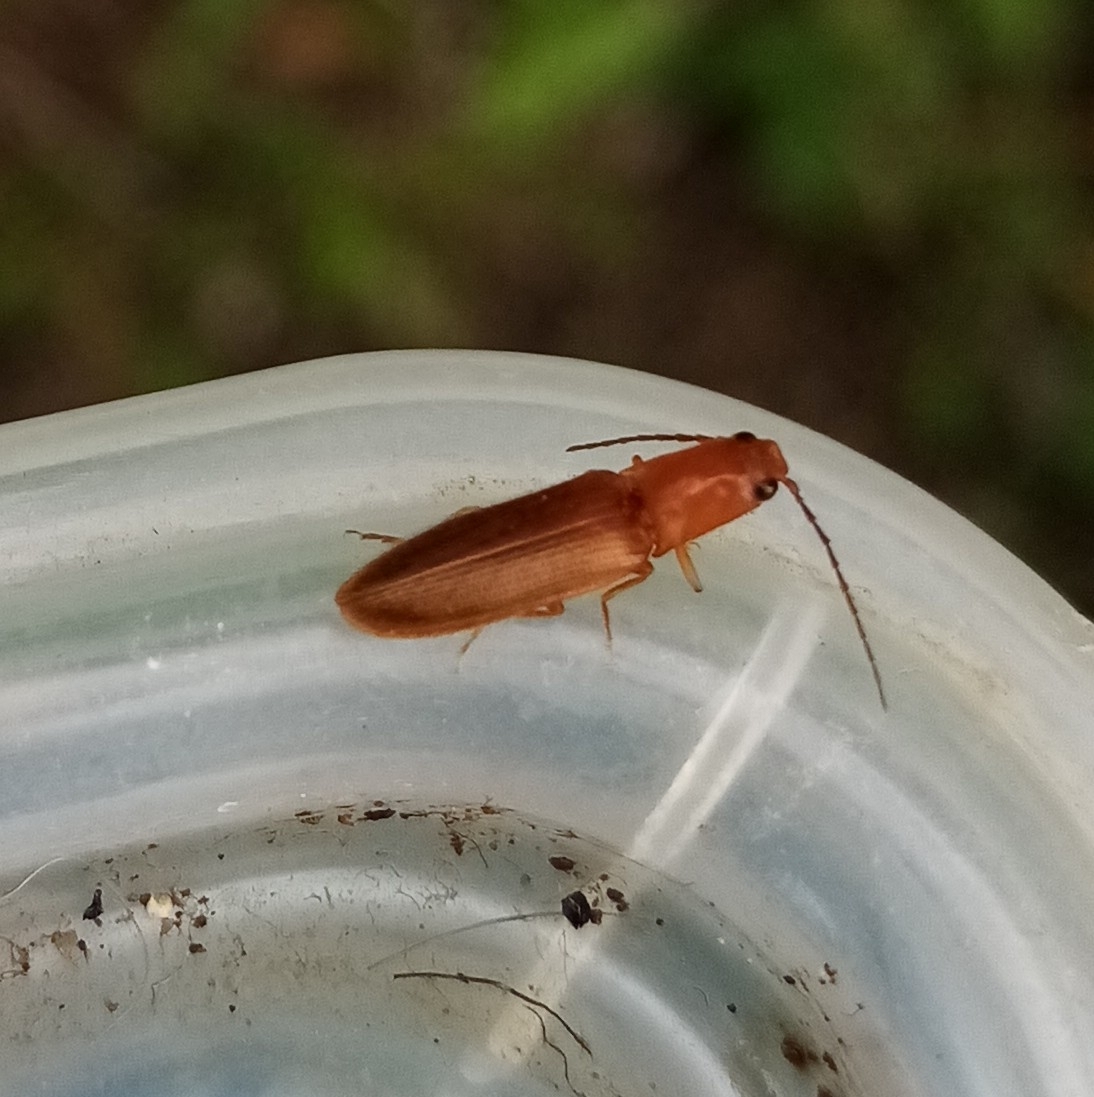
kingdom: Animalia
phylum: Arthropoda
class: Insecta
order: Coleoptera
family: Elateridae
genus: Pseudocrepidophorus
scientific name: Pseudocrepidophorus flavescens
